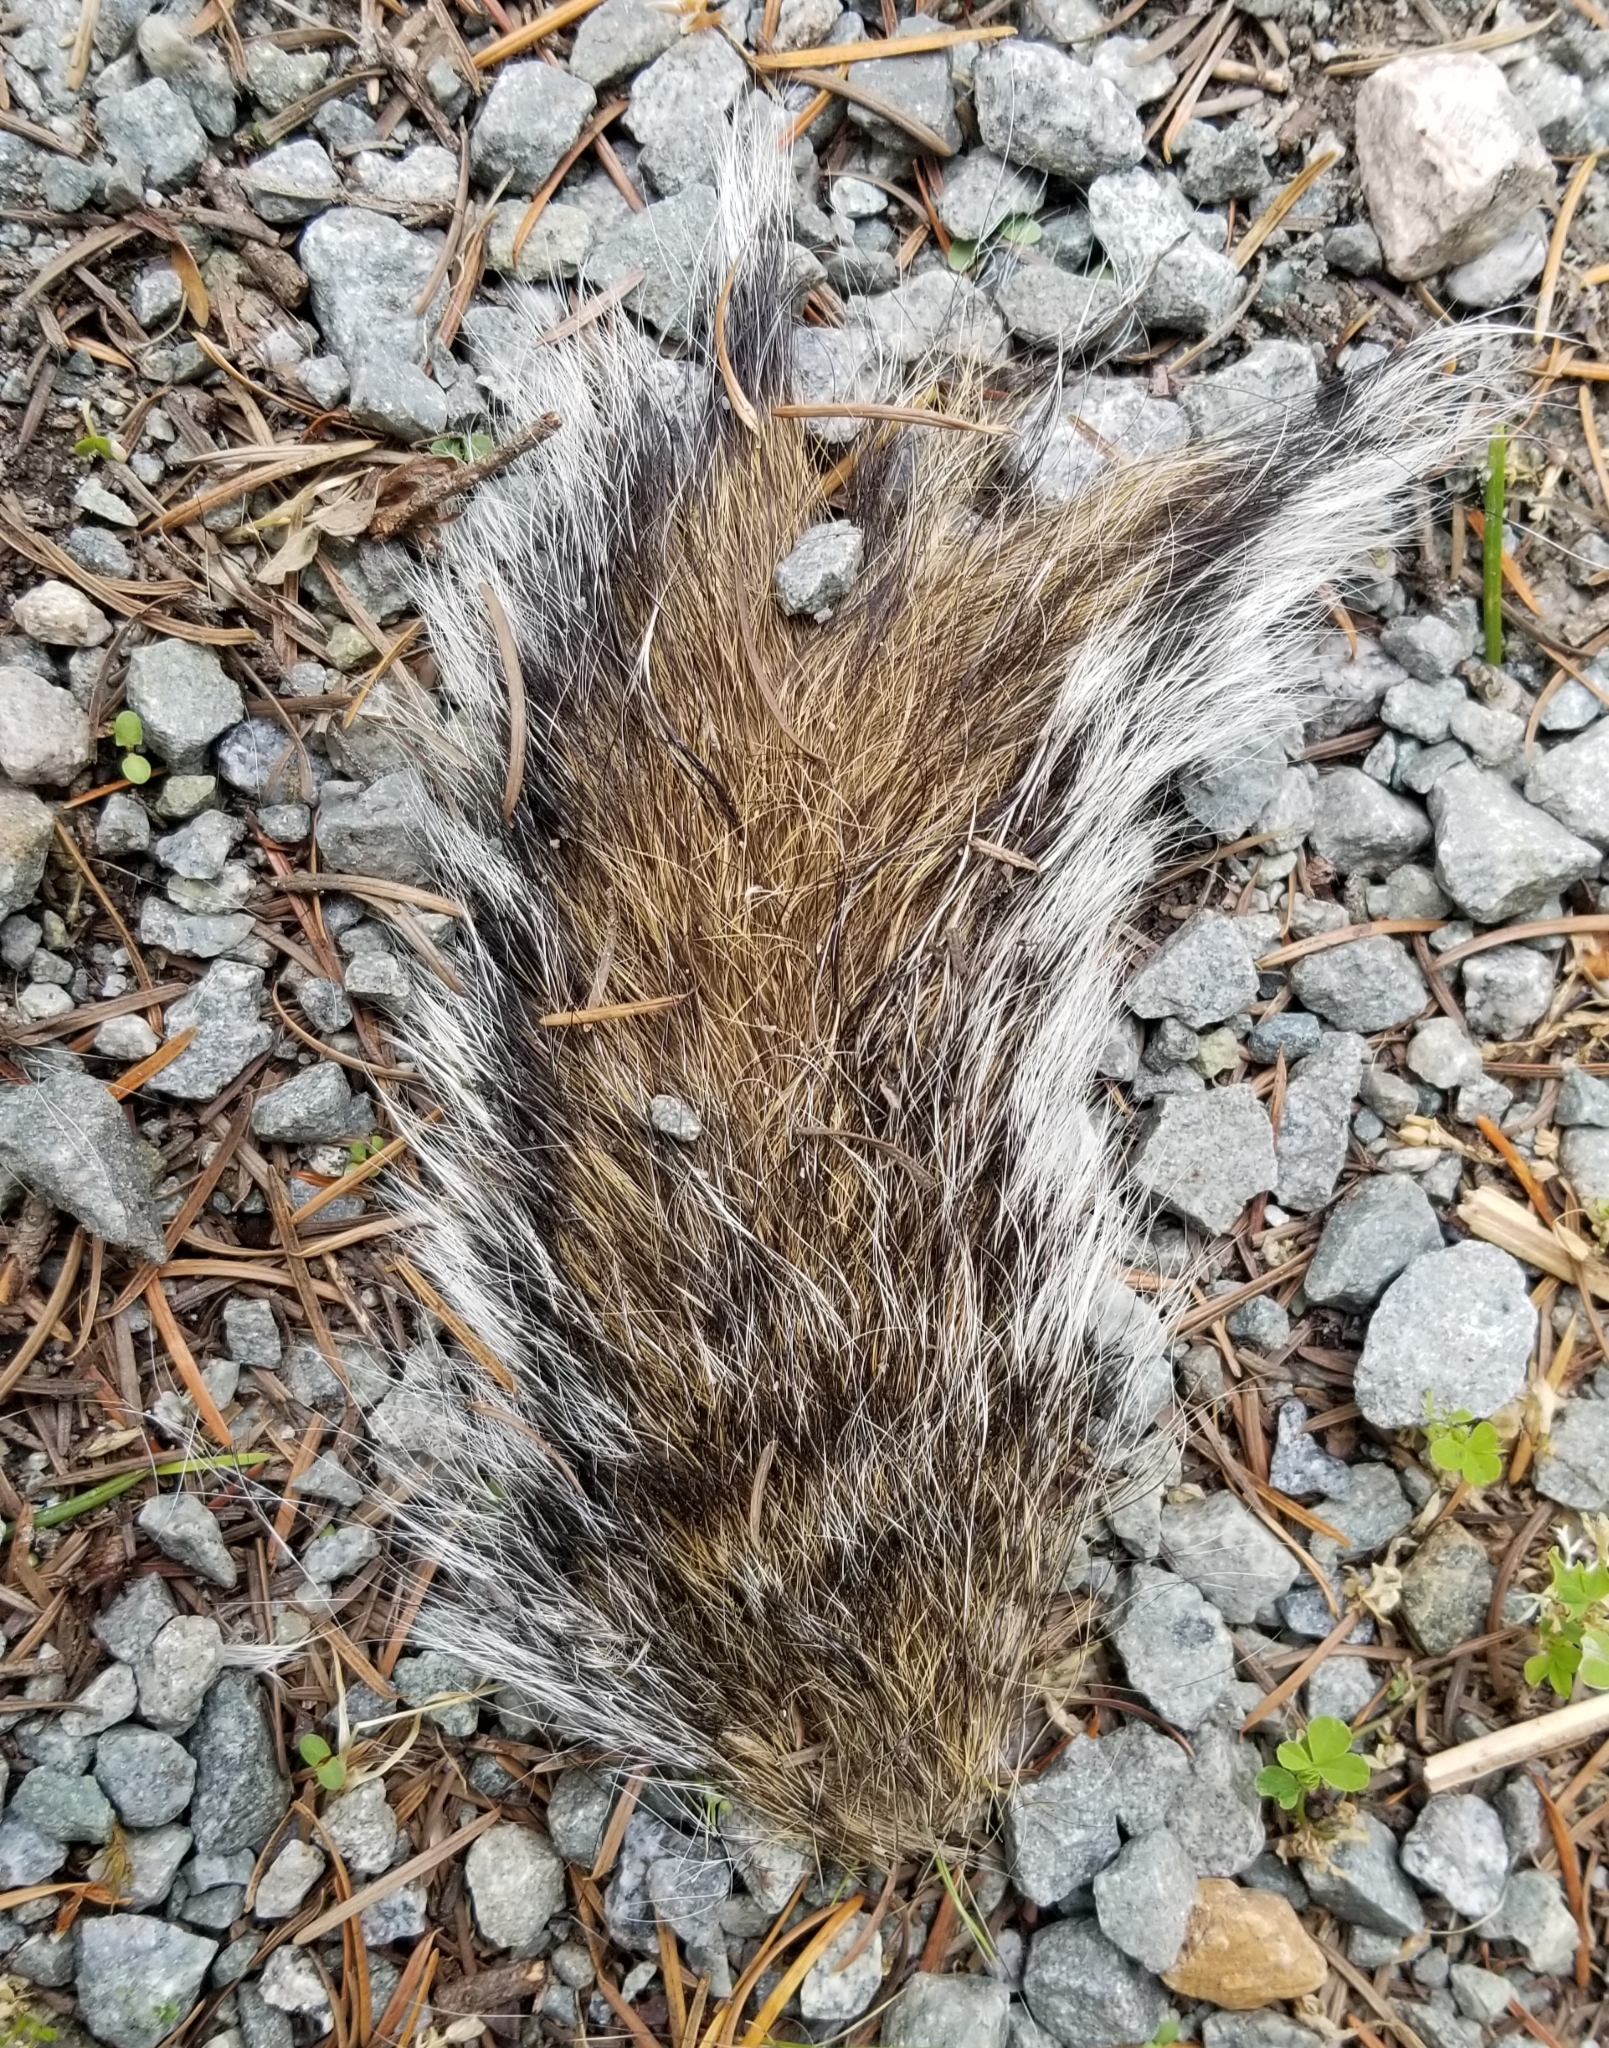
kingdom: Animalia
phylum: Chordata
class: Mammalia
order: Rodentia
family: Sciuridae
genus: Sciurus
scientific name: Sciurus carolinensis
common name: Eastern gray squirrel
